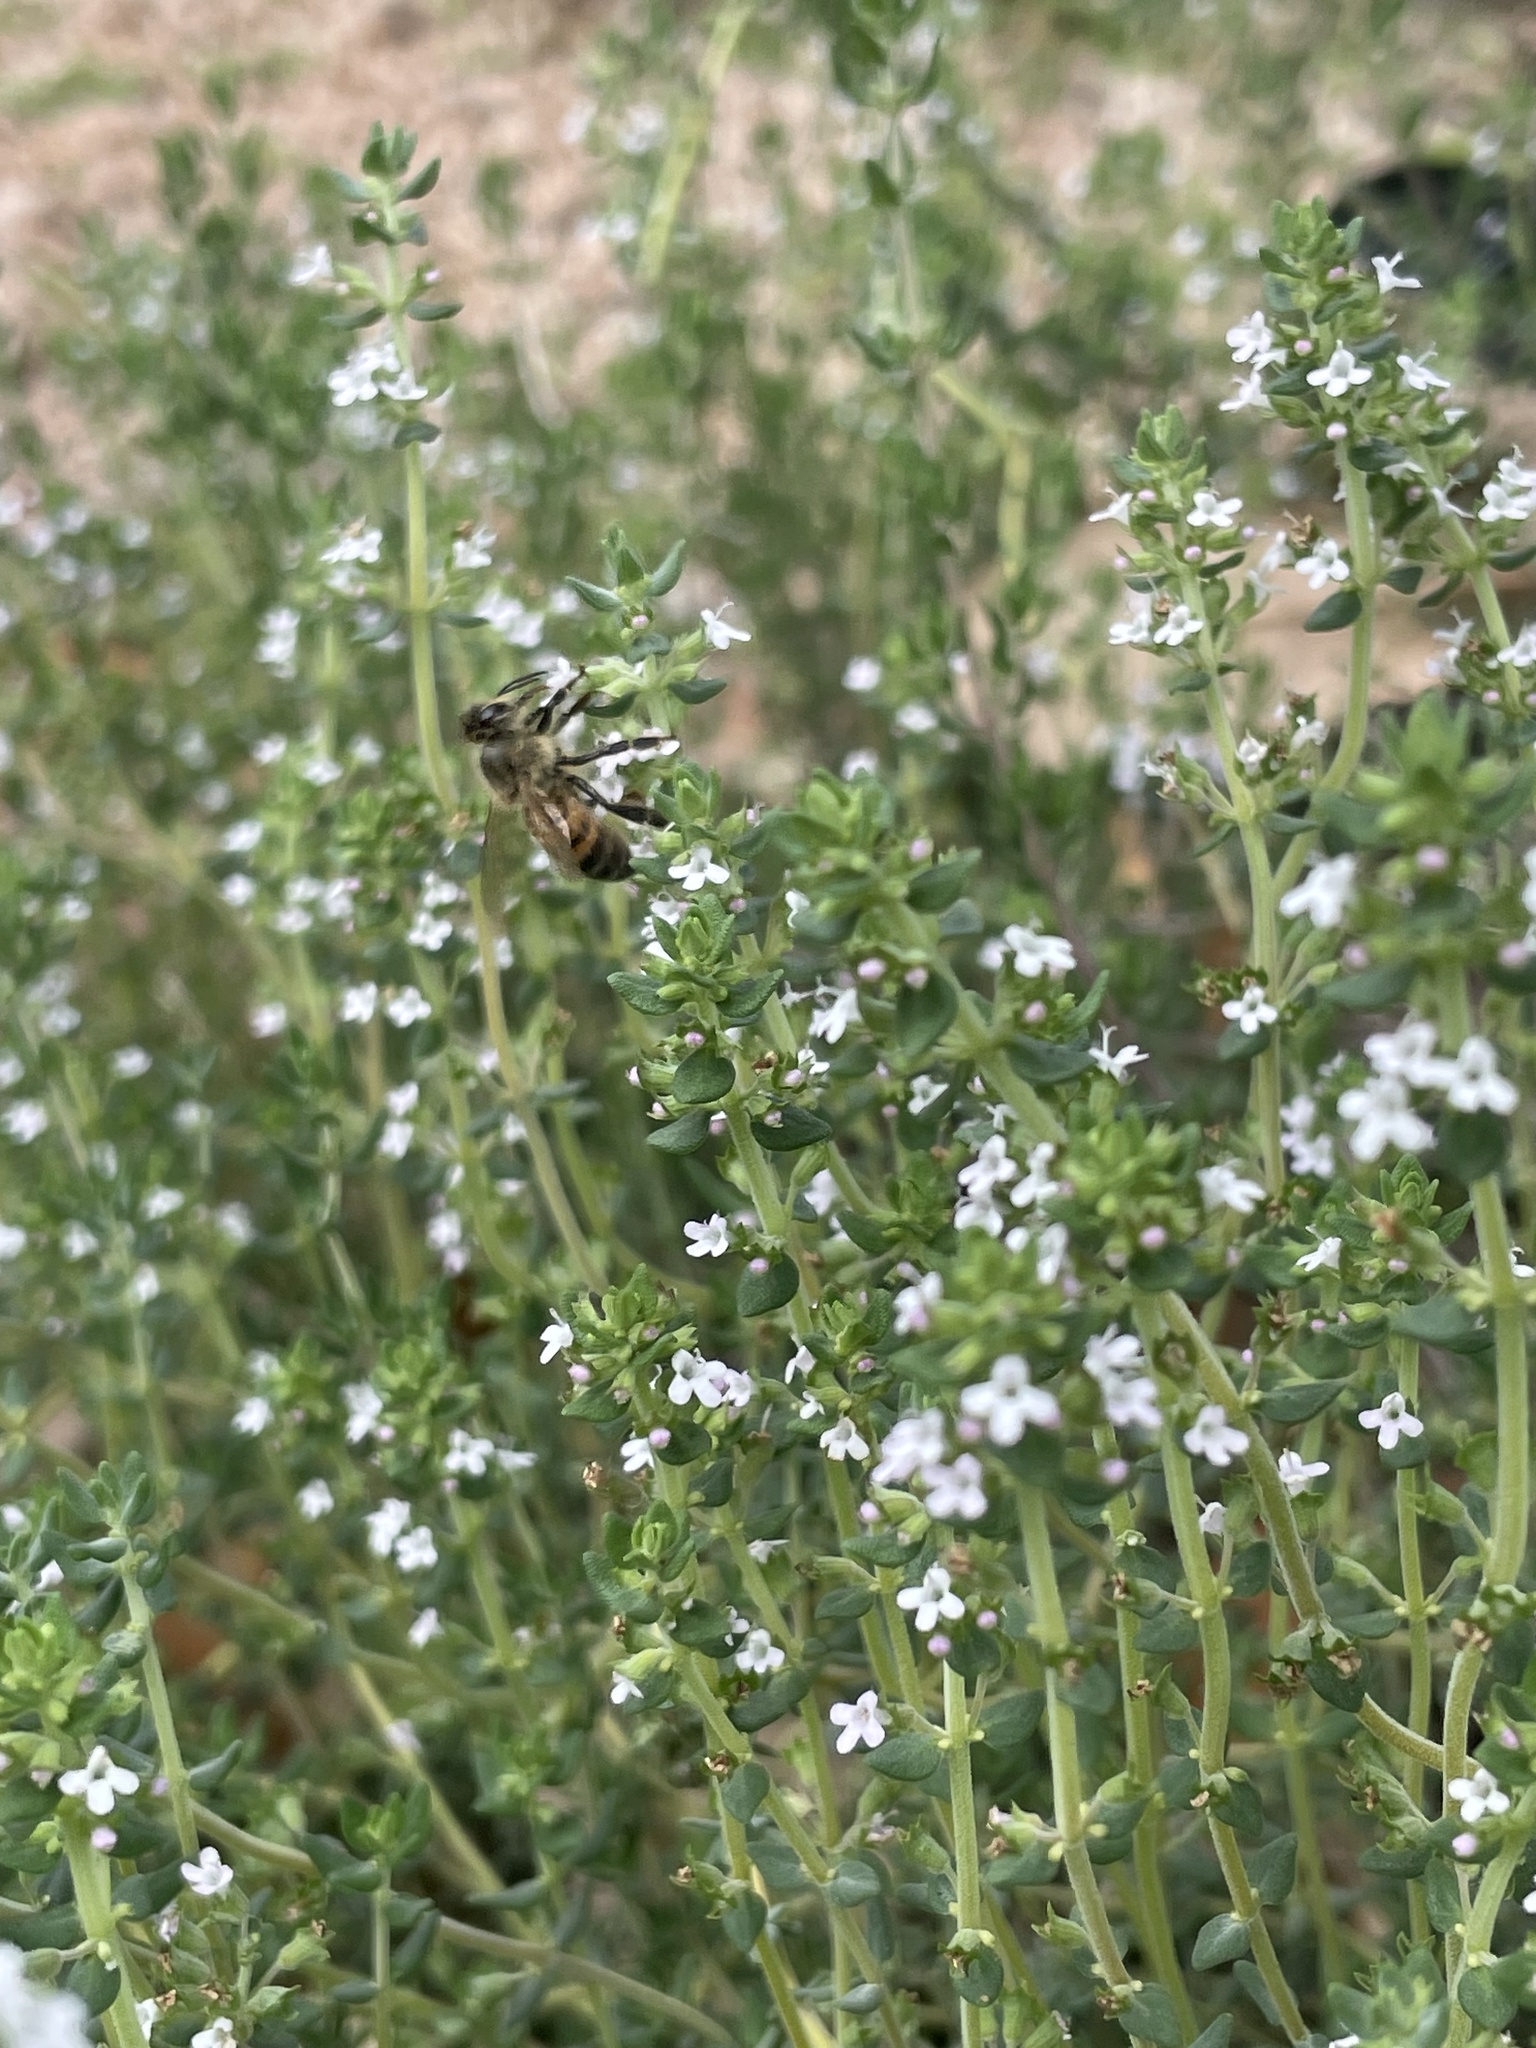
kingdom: Animalia
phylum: Arthropoda
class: Insecta
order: Hymenoptera
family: Apidae
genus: Apis
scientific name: Apis mellifera
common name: Honey bee
